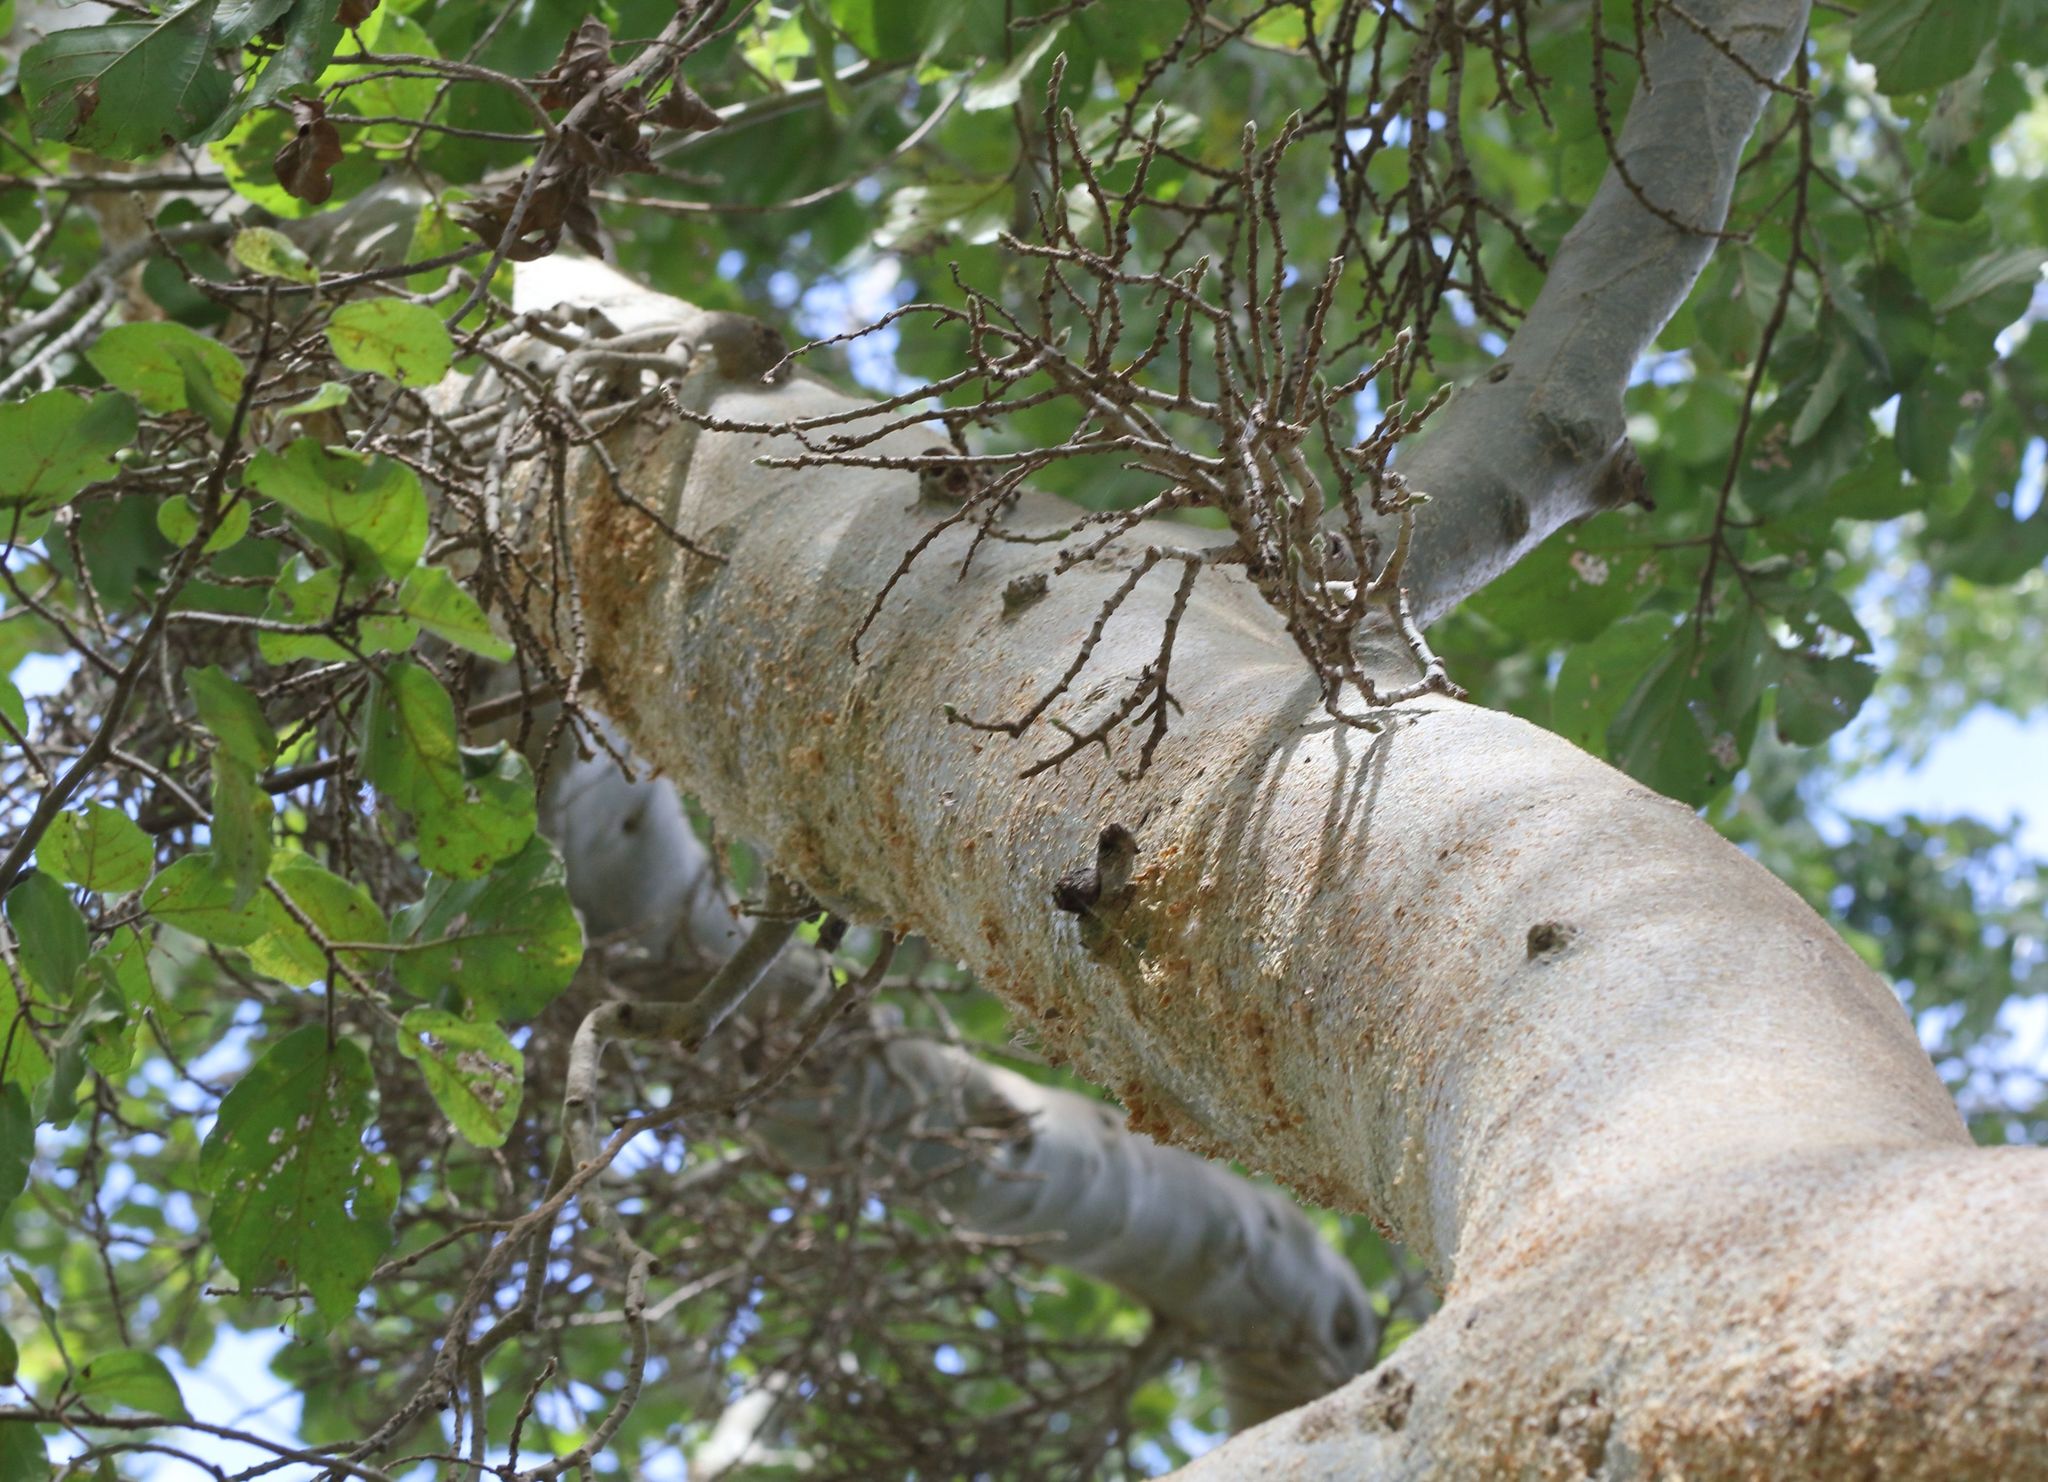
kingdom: Plantae
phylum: Tracheophyta
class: Magnoliopsida
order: Rosales
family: Moraceae
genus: Ficus
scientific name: Ficus sycomorus
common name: Sycomore
